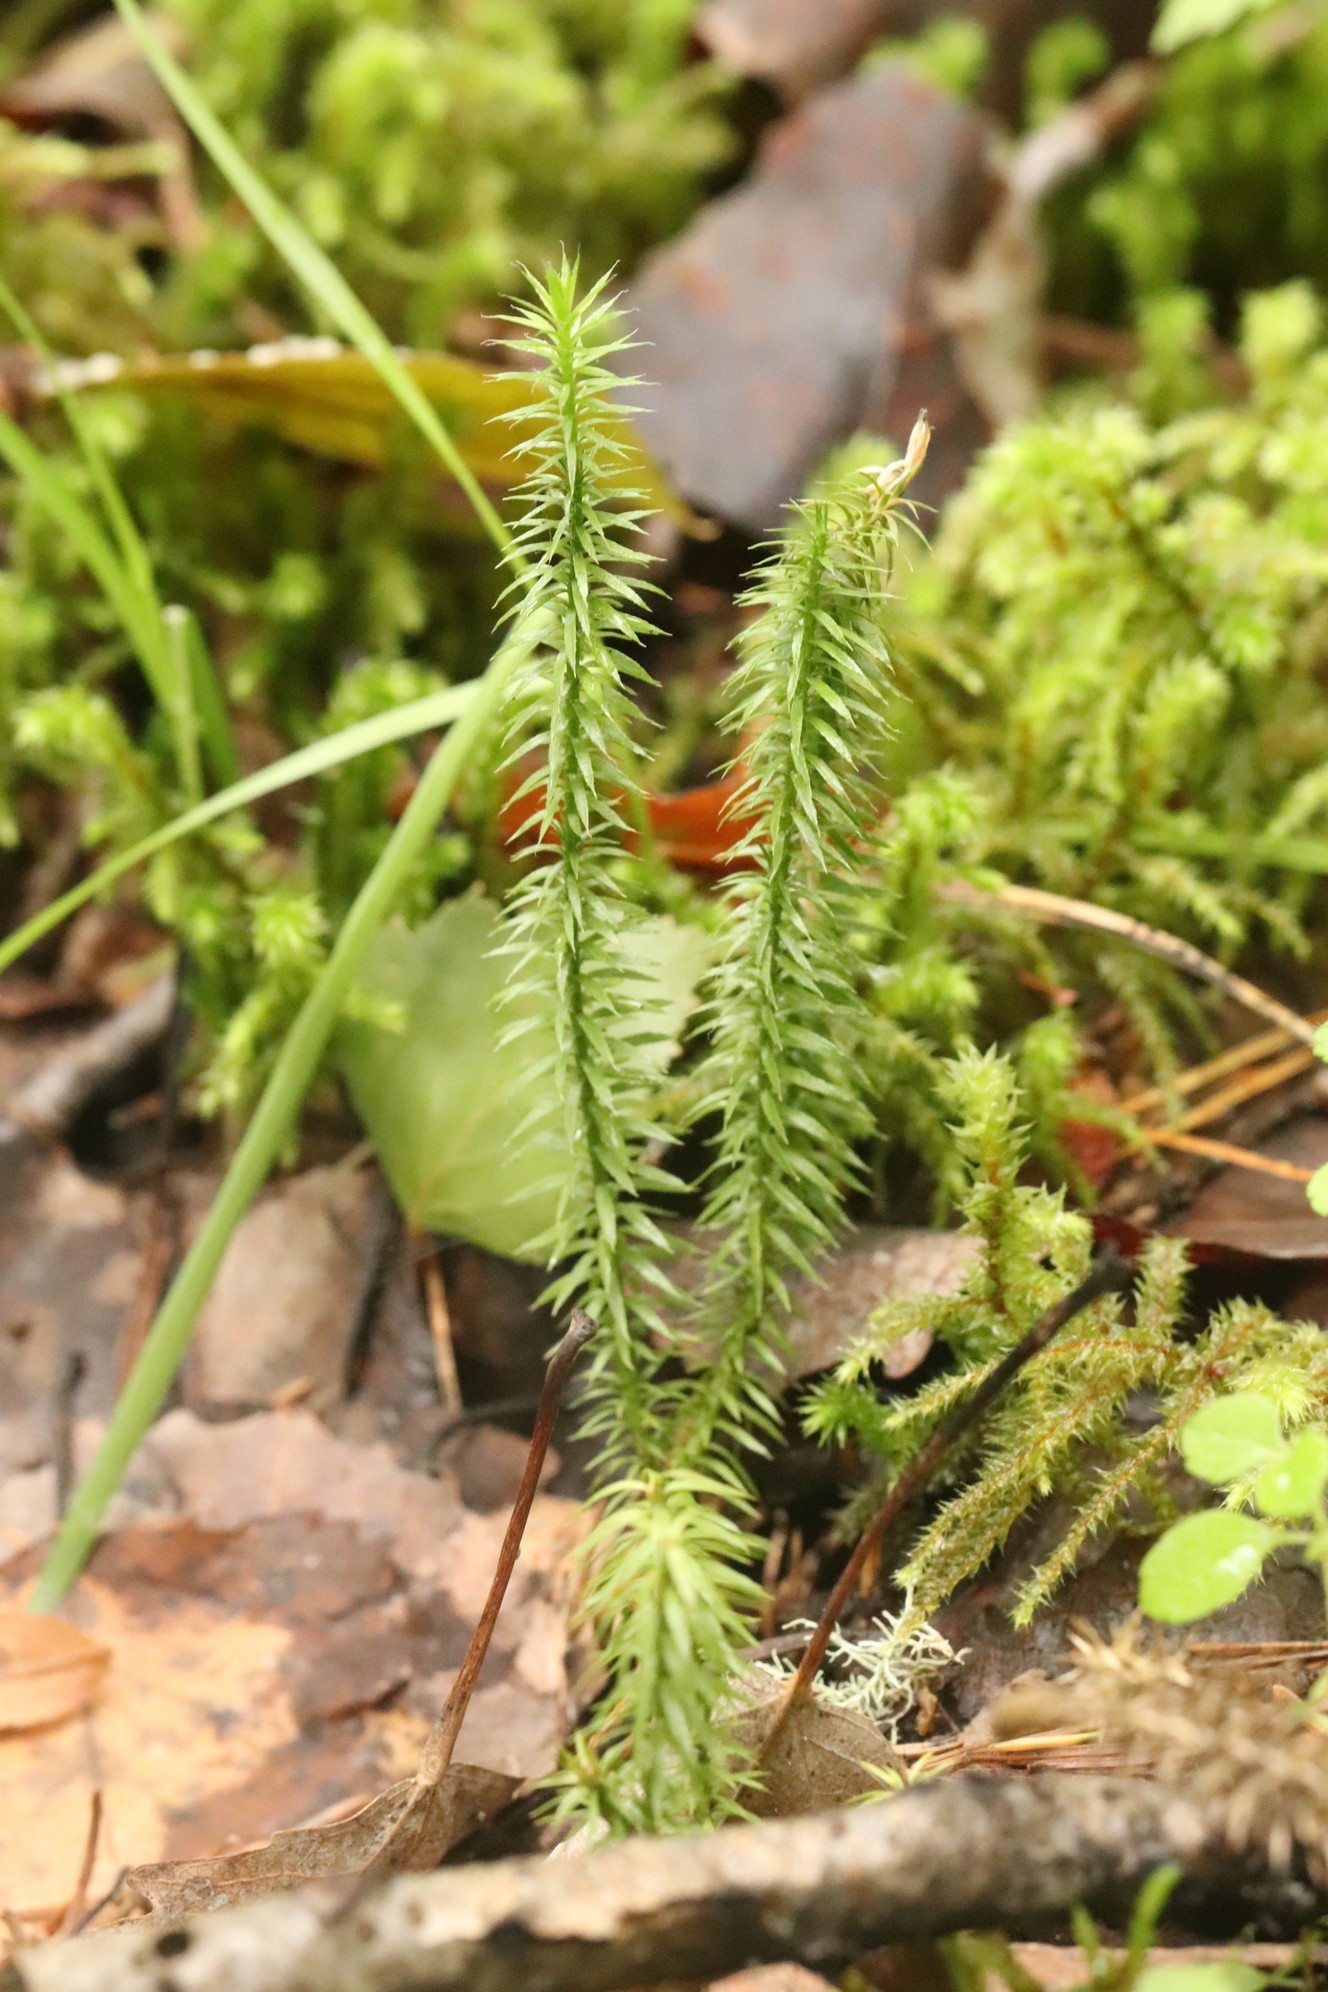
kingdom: Plantae
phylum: Tracheophyta
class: Lycopodiopsida
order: Lycopodiales
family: Lycopodiaceae
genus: Spinulum
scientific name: Spinulum annotinum
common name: Interrupted club-moss
